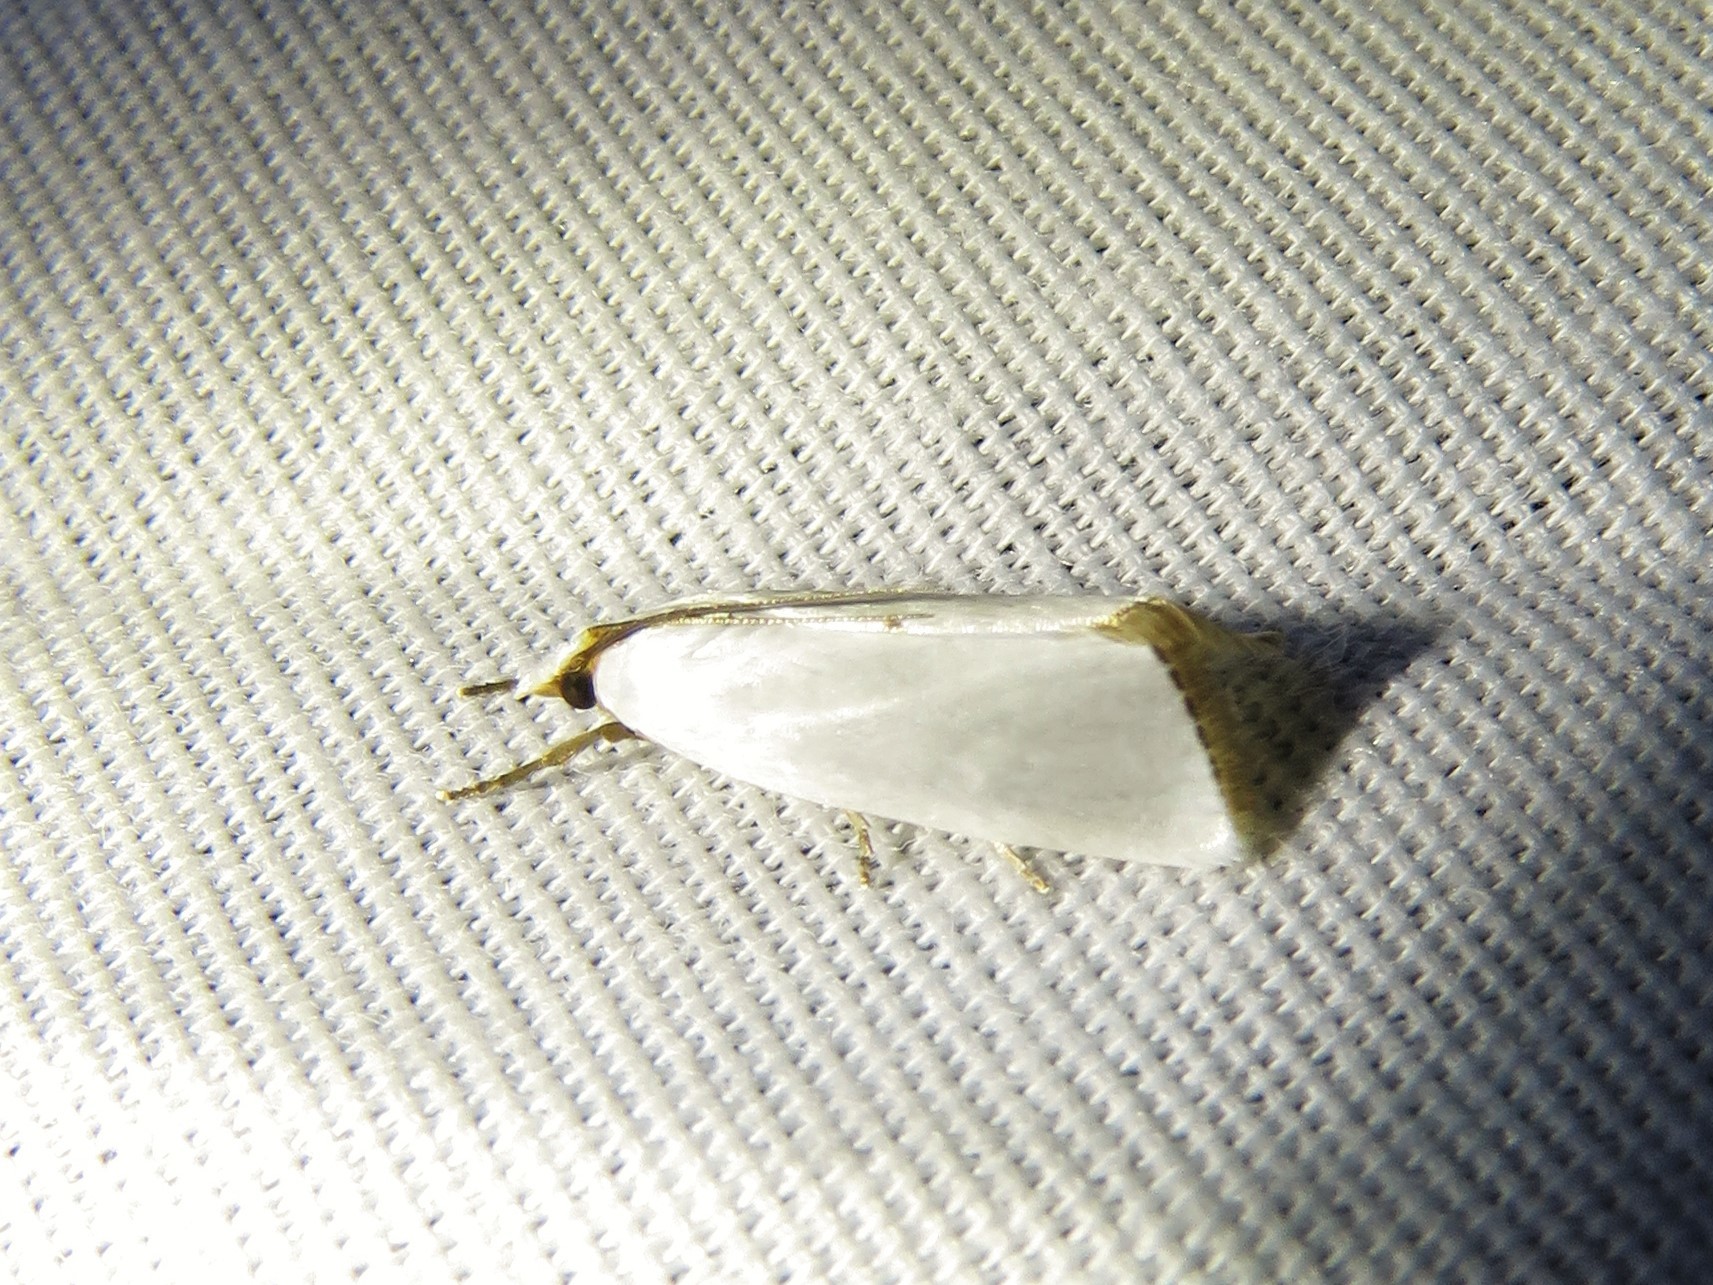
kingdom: Animalia
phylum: Arthropoda
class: Insecta
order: Lepidoptera
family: Crambidae
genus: Argyria
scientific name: Argyria nivalis
